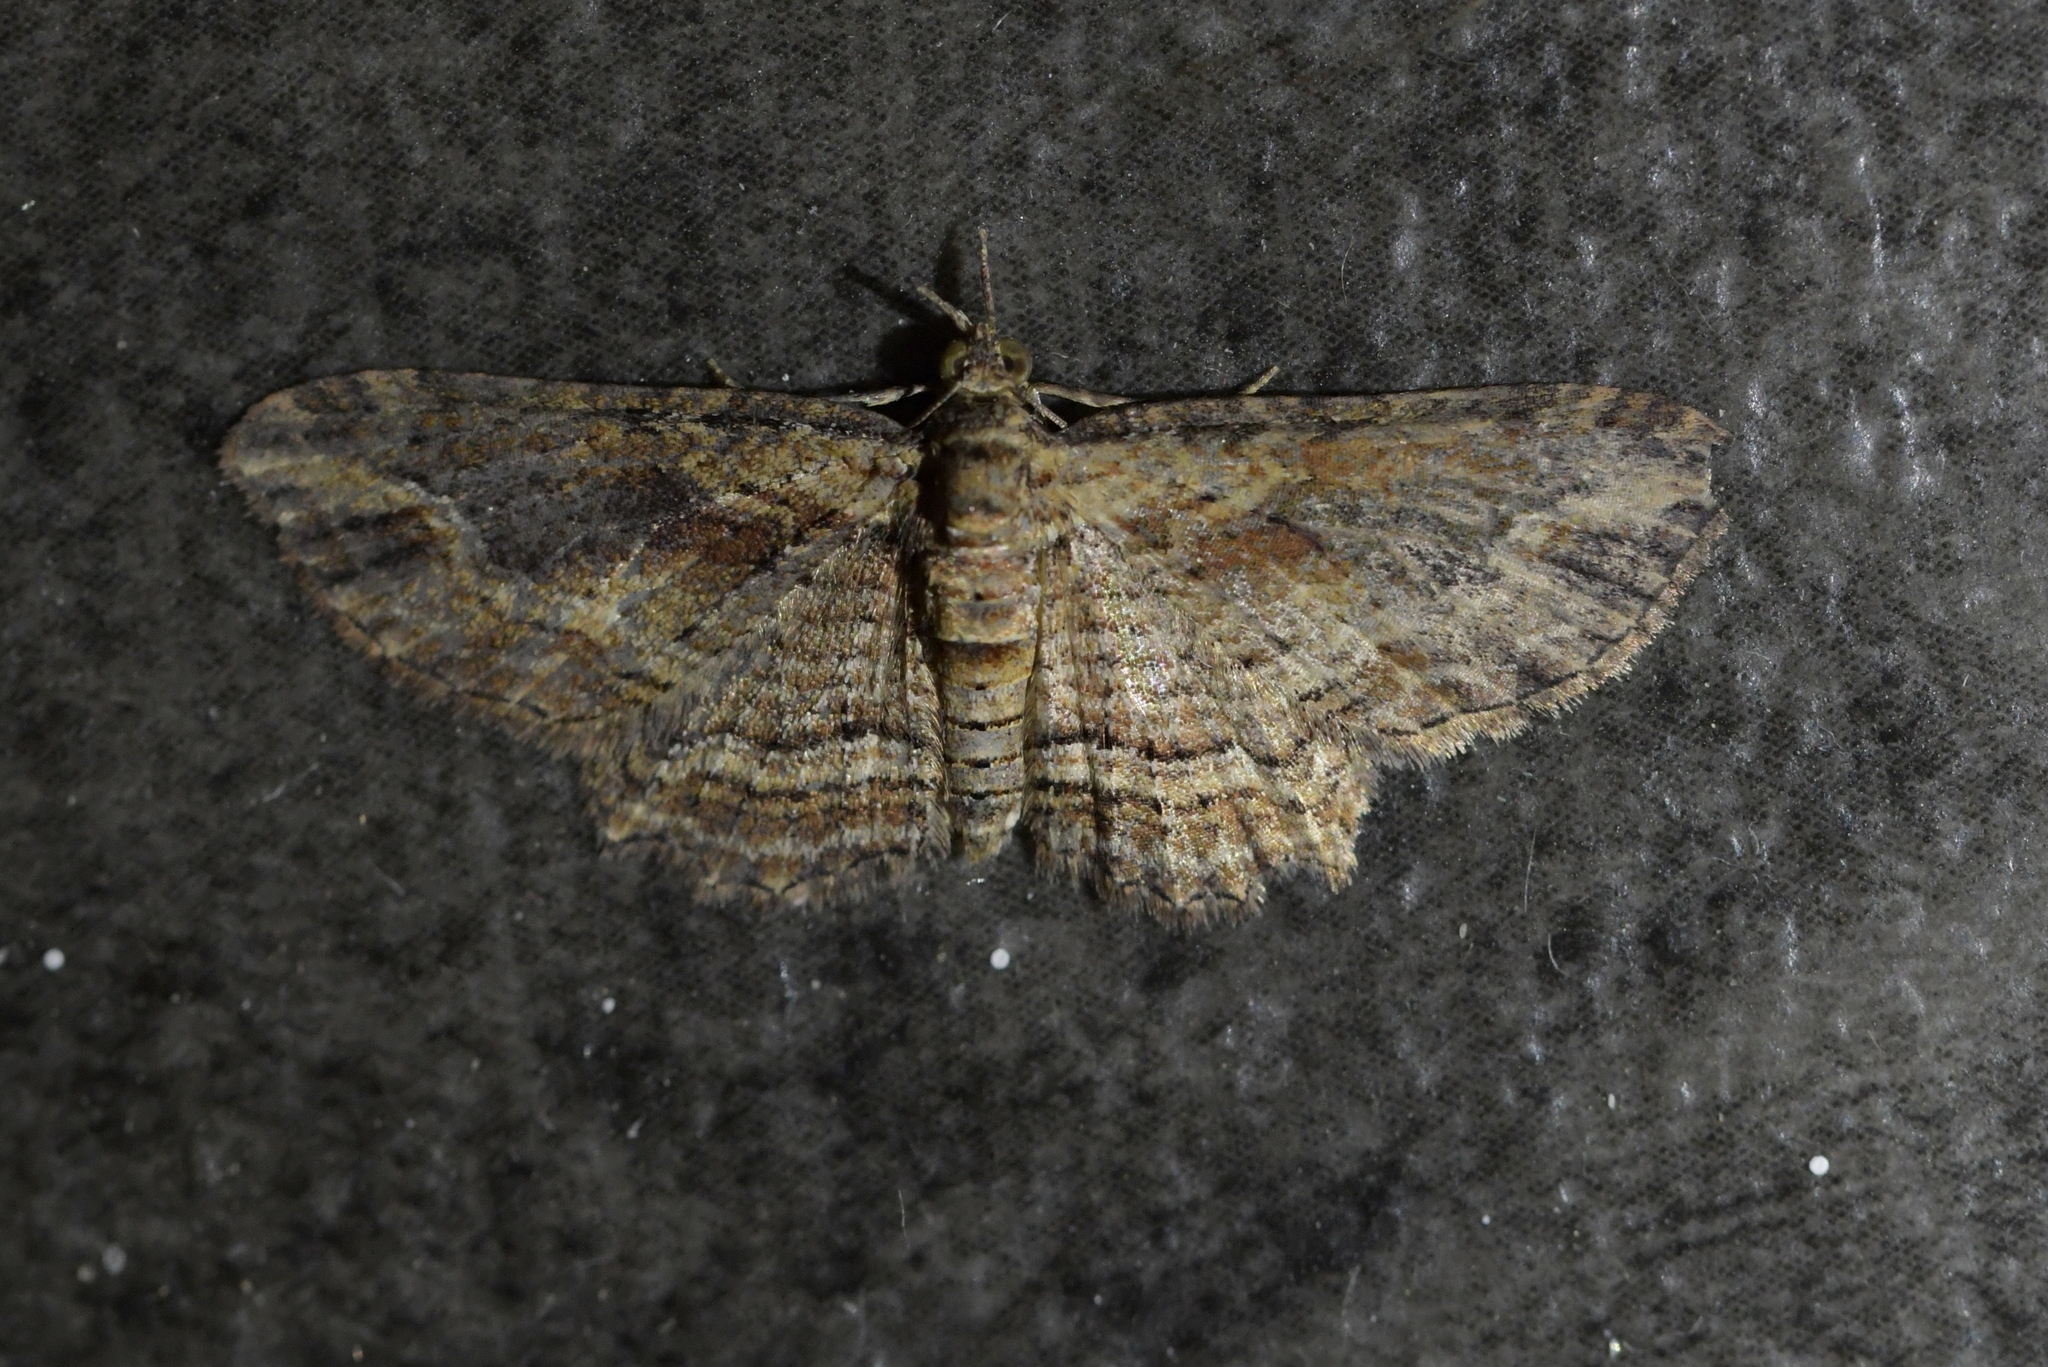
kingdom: Animalia
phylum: Arthropoda
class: Insecta
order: Lepidoptera
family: Geometridae
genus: Chloroclystis
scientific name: Chloroclystis filata
